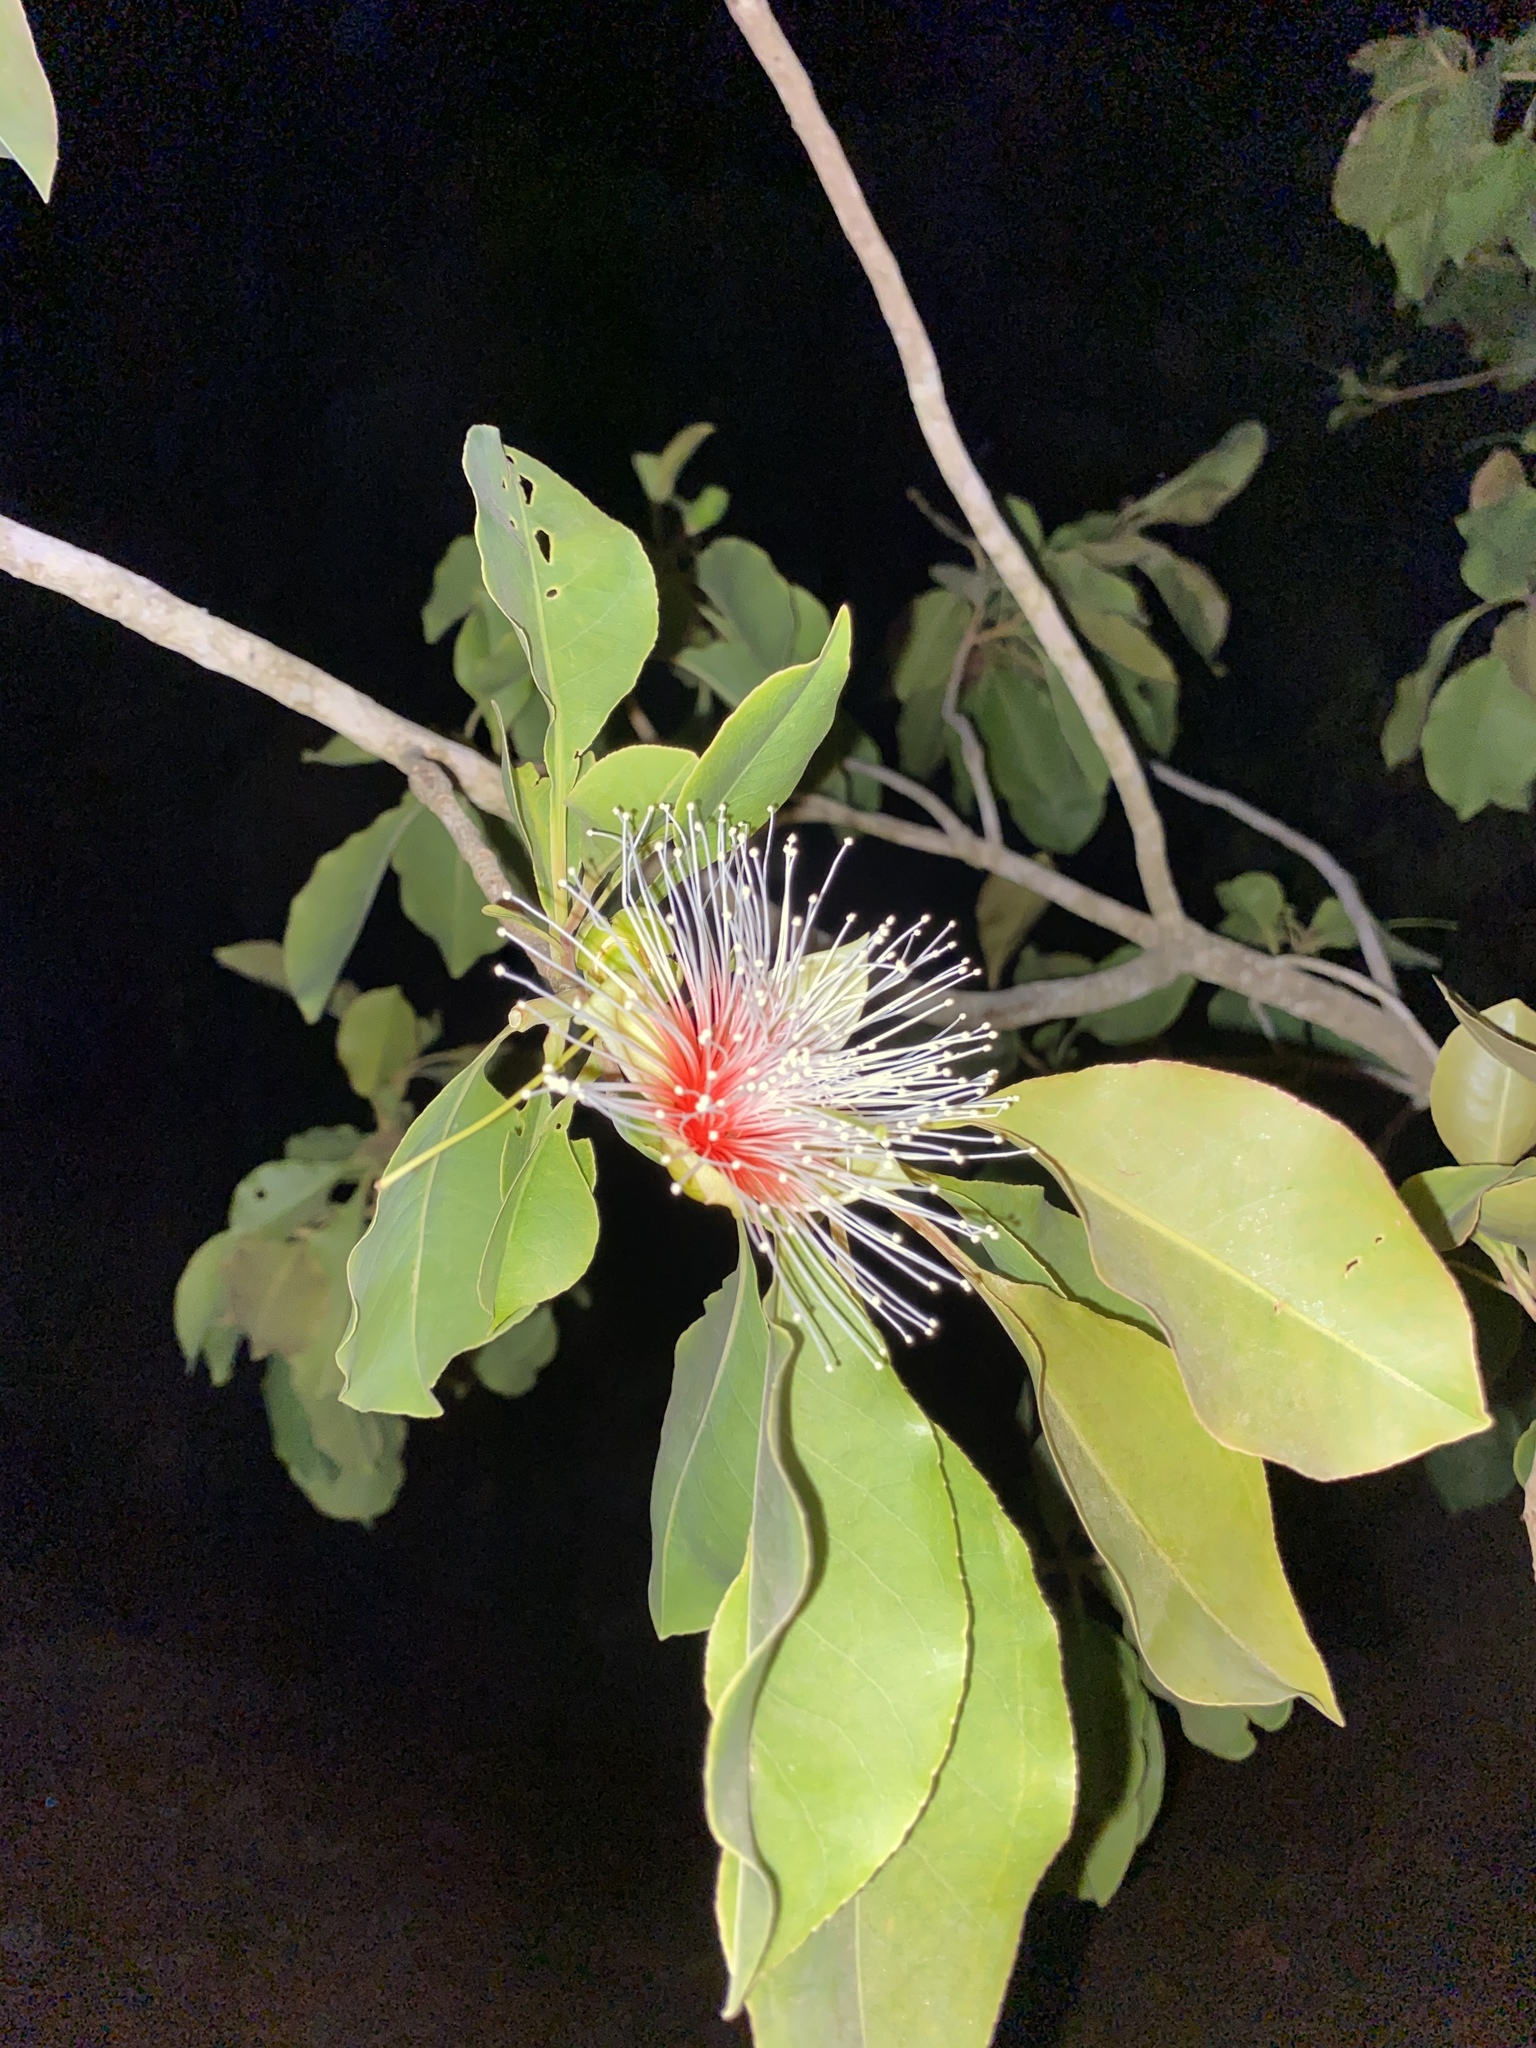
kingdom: Plantae
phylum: Tracheophyta
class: Magnoliopsida
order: Ericales
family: Lecythidaceae
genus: Planchonia
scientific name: Planchonia careya
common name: Cockatoo-apple
